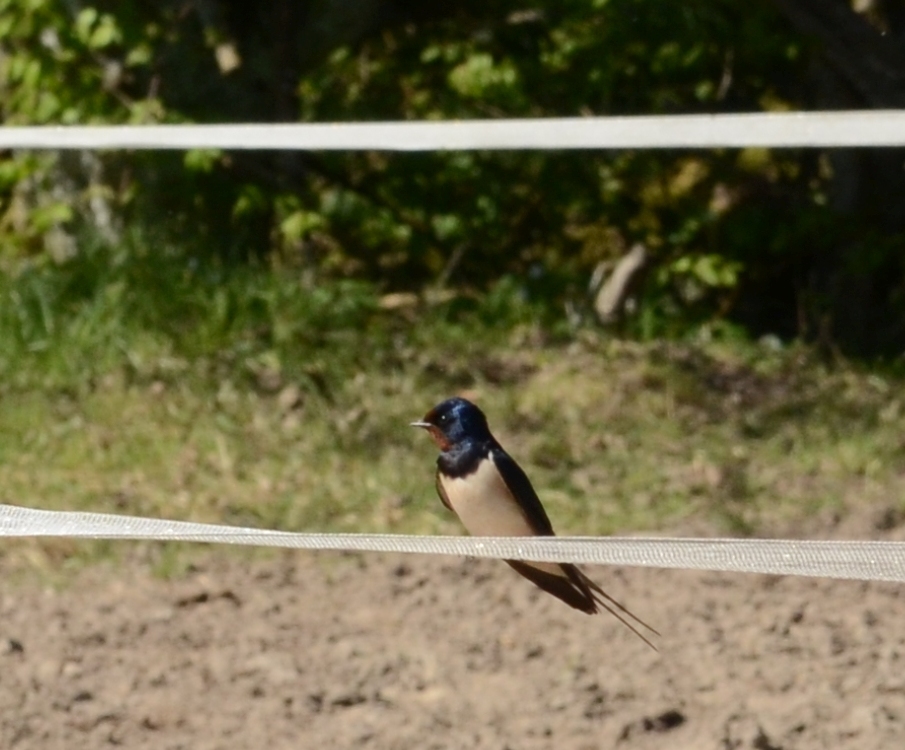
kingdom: Animalia
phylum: Chordata
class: Aves
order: Passeriformes
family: Hirundinidae
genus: Hirundo
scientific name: Hirundo rustica
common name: Barn swallow
